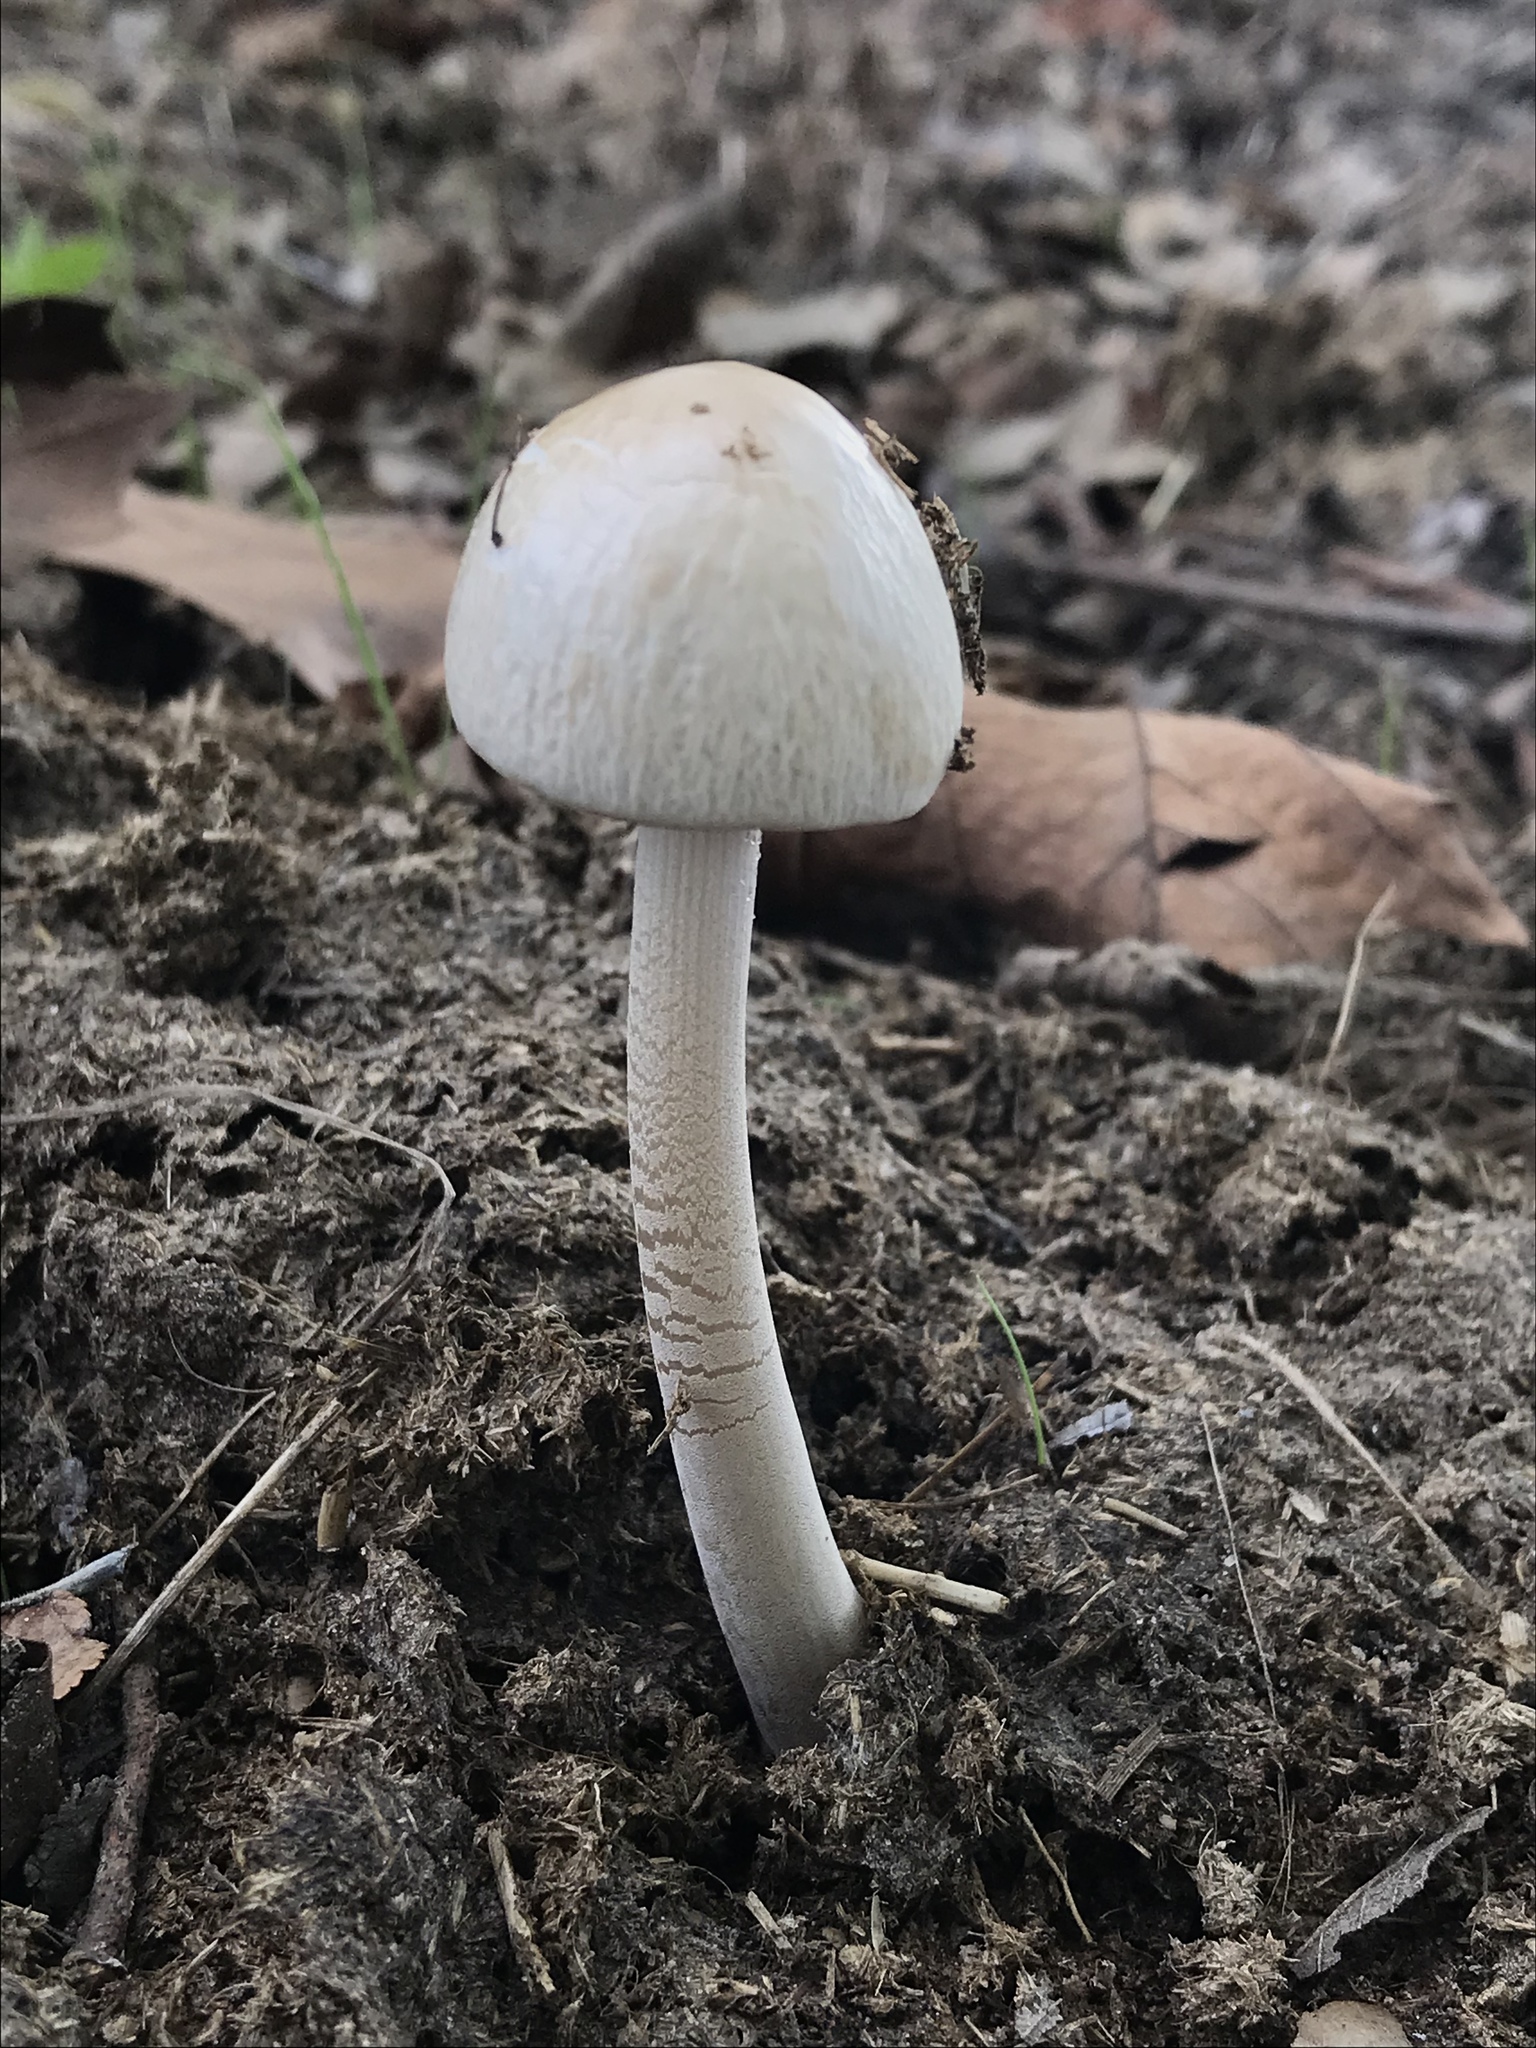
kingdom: Fungi
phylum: Basidiomycota
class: Agaricomycetes
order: Agaricales
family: Bolbitiaceae
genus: Panaeolus
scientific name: Panaeolus antillarum
